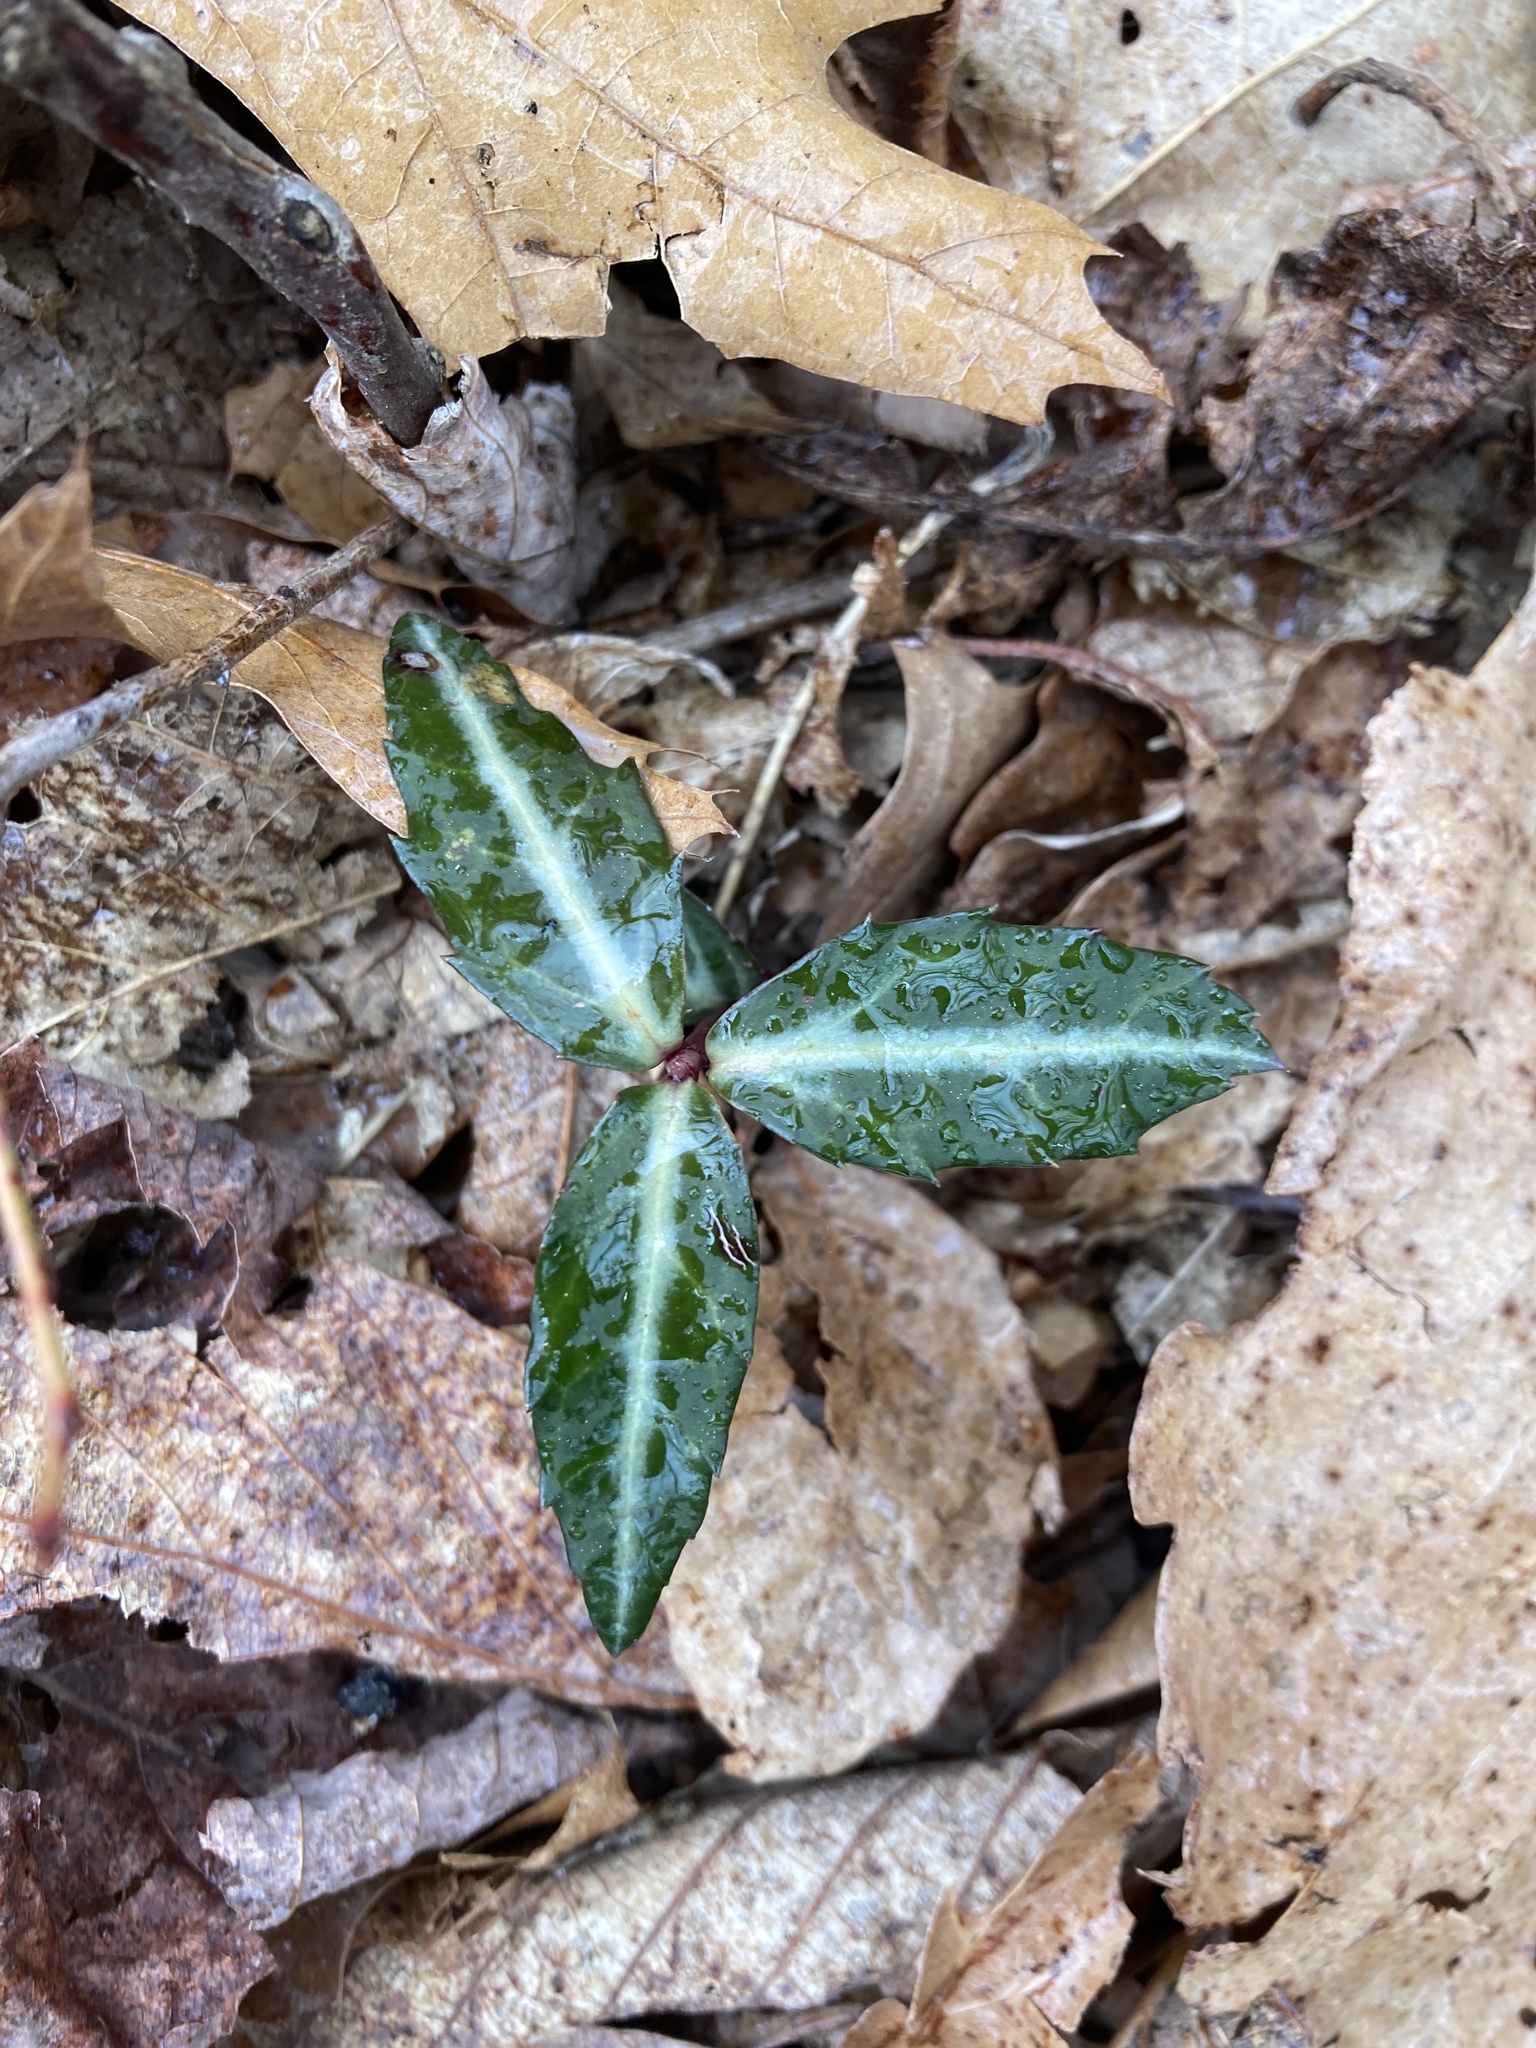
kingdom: Plantae
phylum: Tracheophyta
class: Magnoliopsida
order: Ericales
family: Ericaceae
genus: Chimaphila
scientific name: Chimaphila maculata
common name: Spotted pipsissewa
